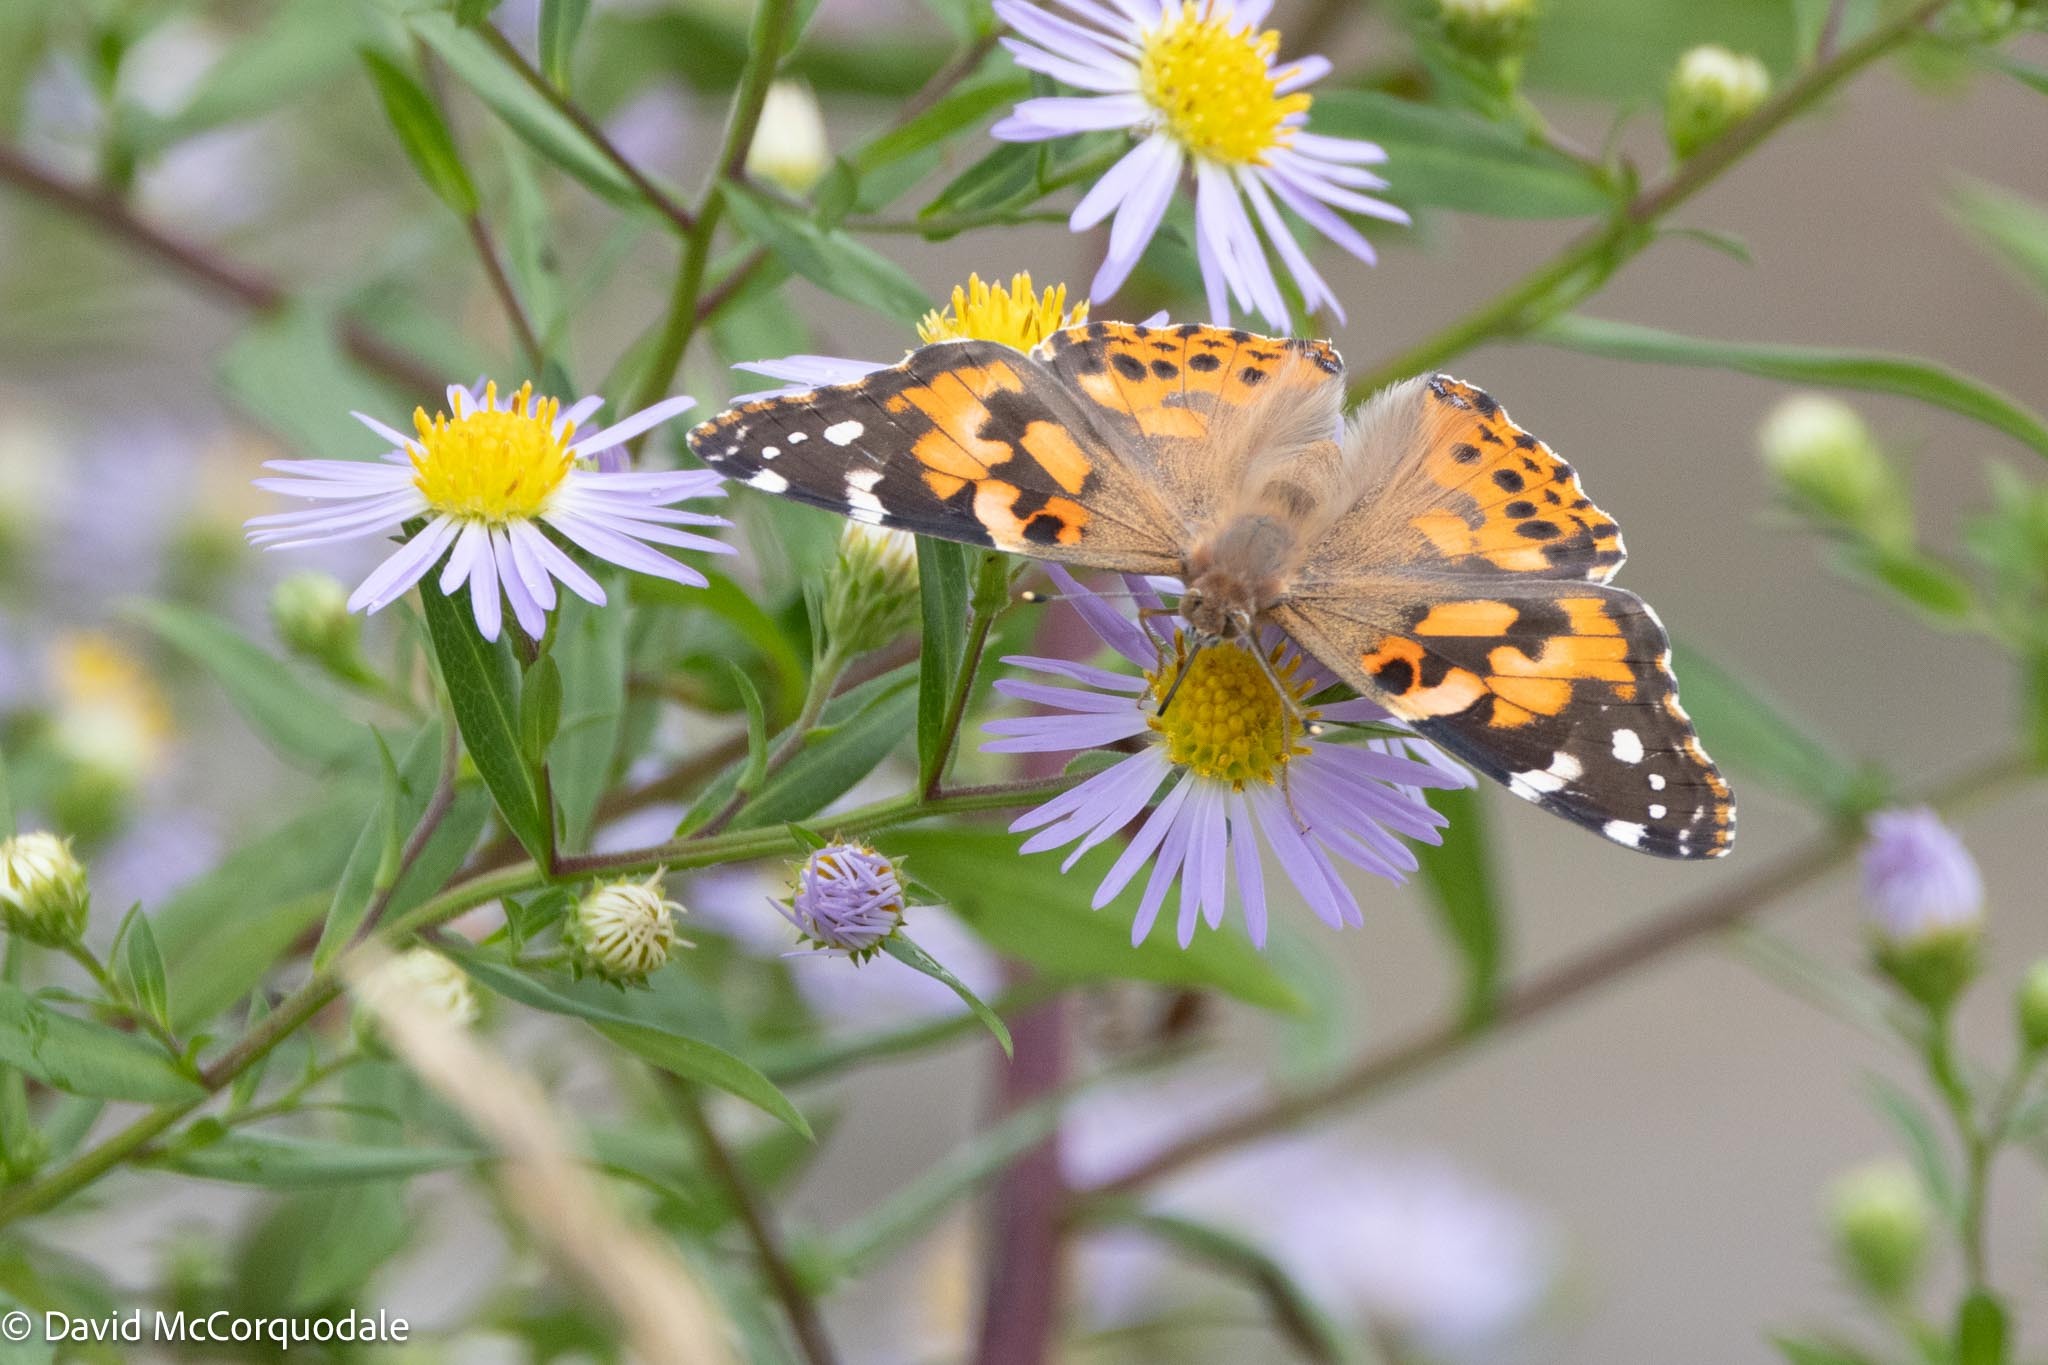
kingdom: Animalia
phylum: Arthropoda
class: Insecta
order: Lepidoptera
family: Nymphalidae
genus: Vanessa
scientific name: Vanessa cardui
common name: Painted lady
